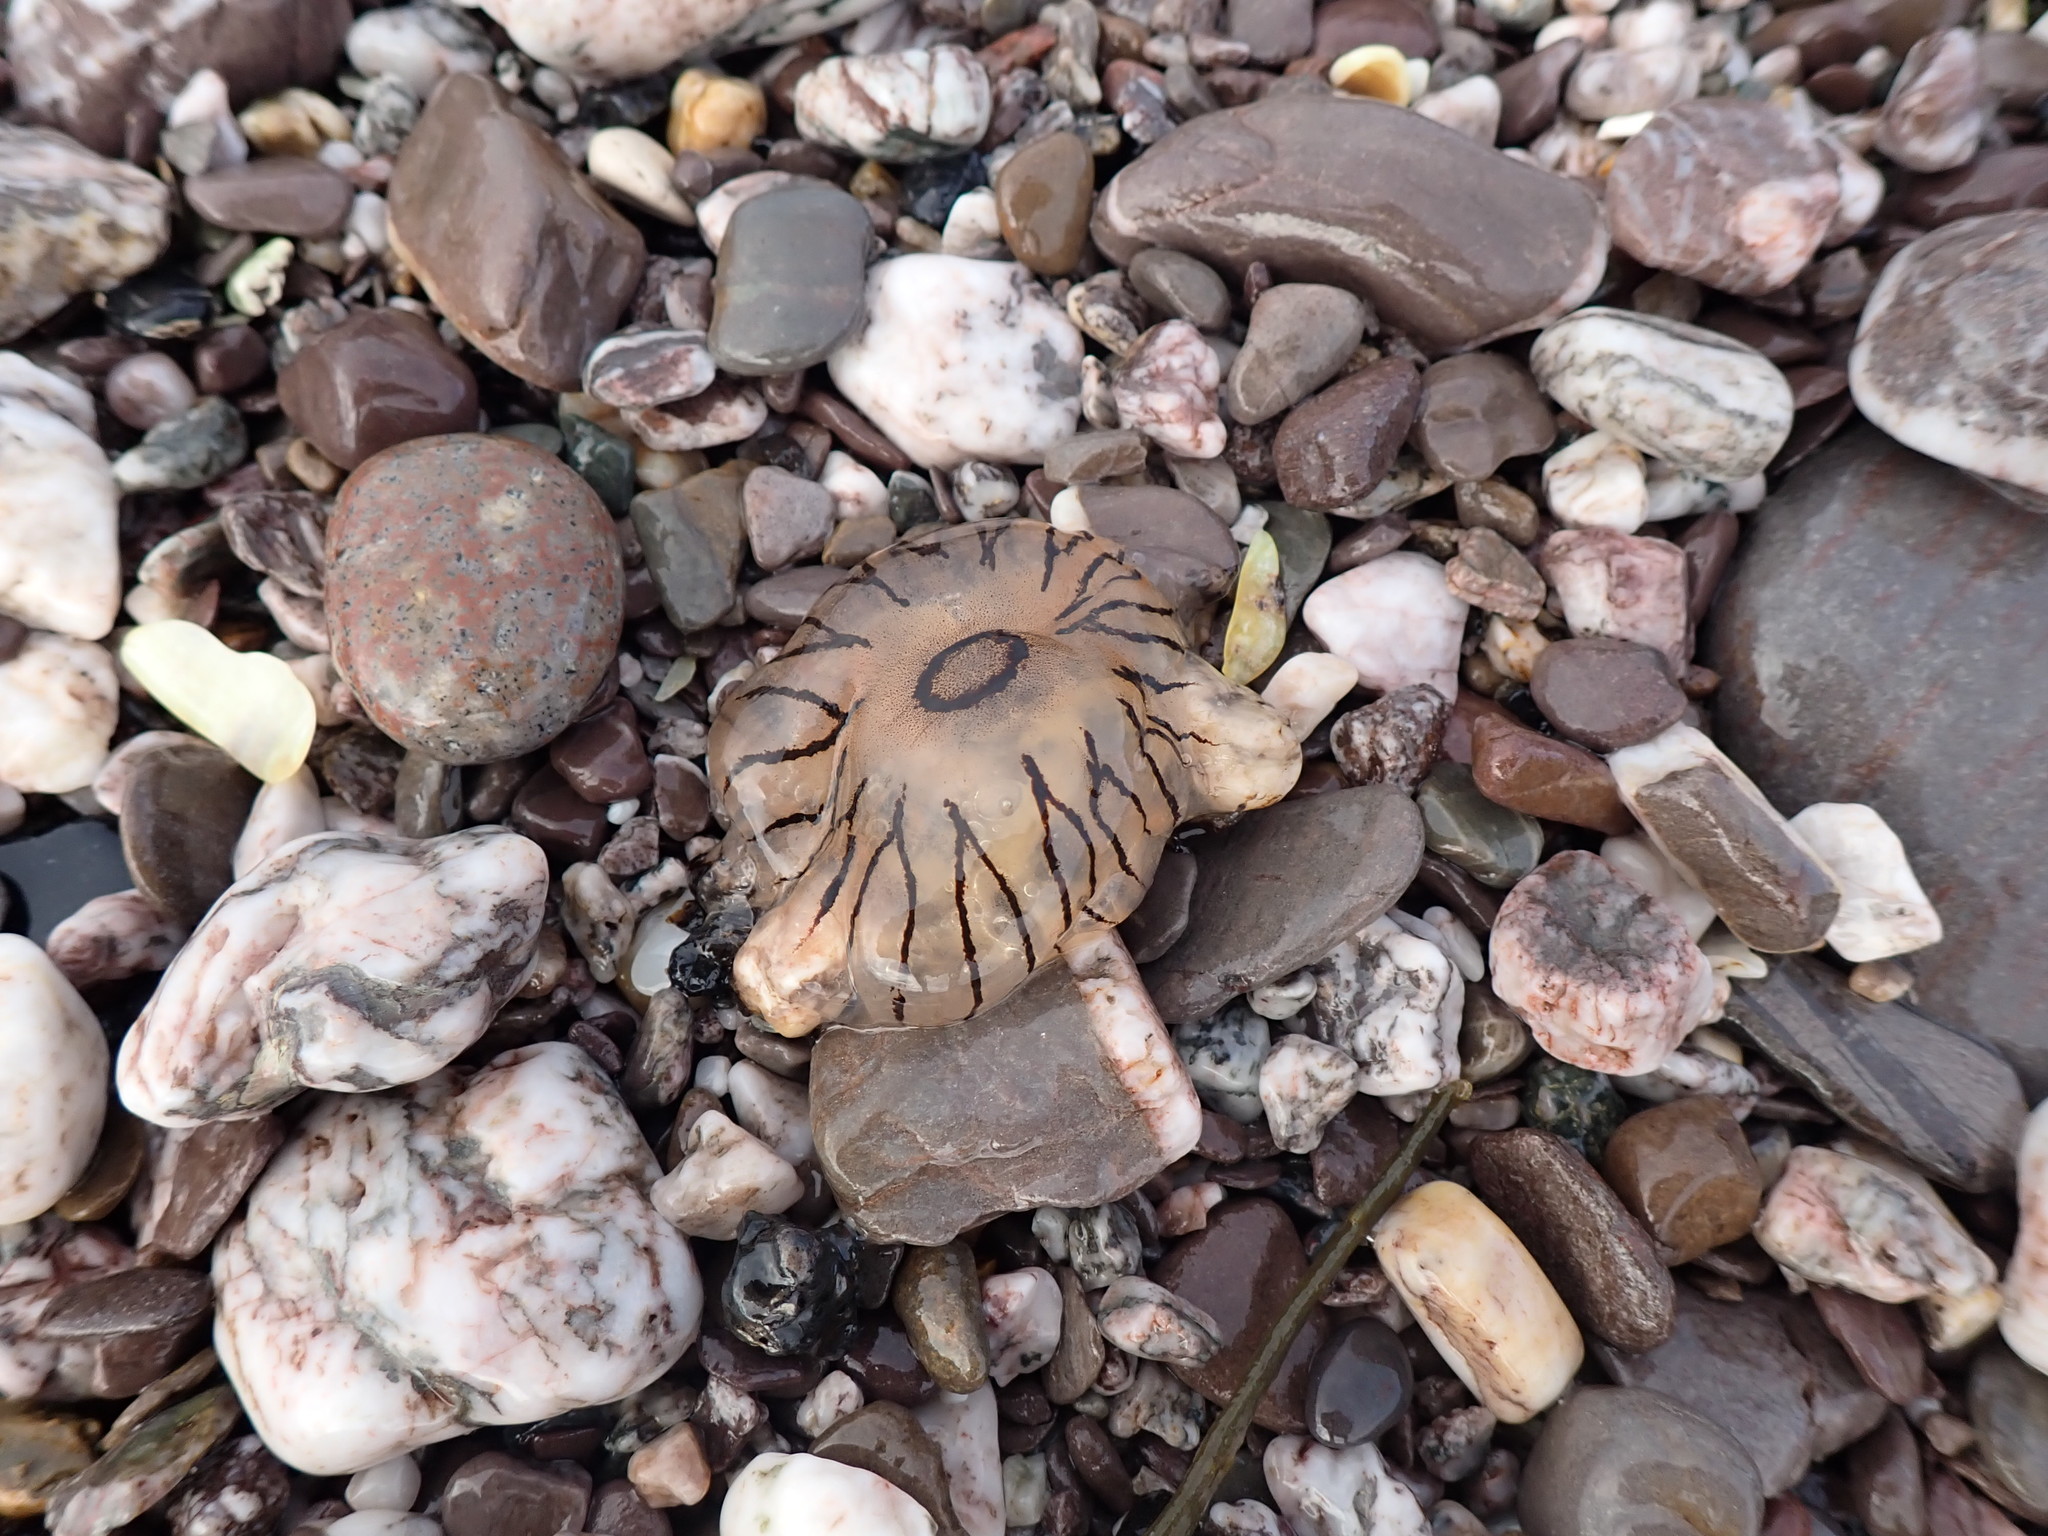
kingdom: Animalia
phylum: Cnidaria
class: Scyphozoa
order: Semaeostomeae
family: Pelagiidae
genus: Chrysaora
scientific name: Chrysaora hysoscella
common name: Compass jellyfish
